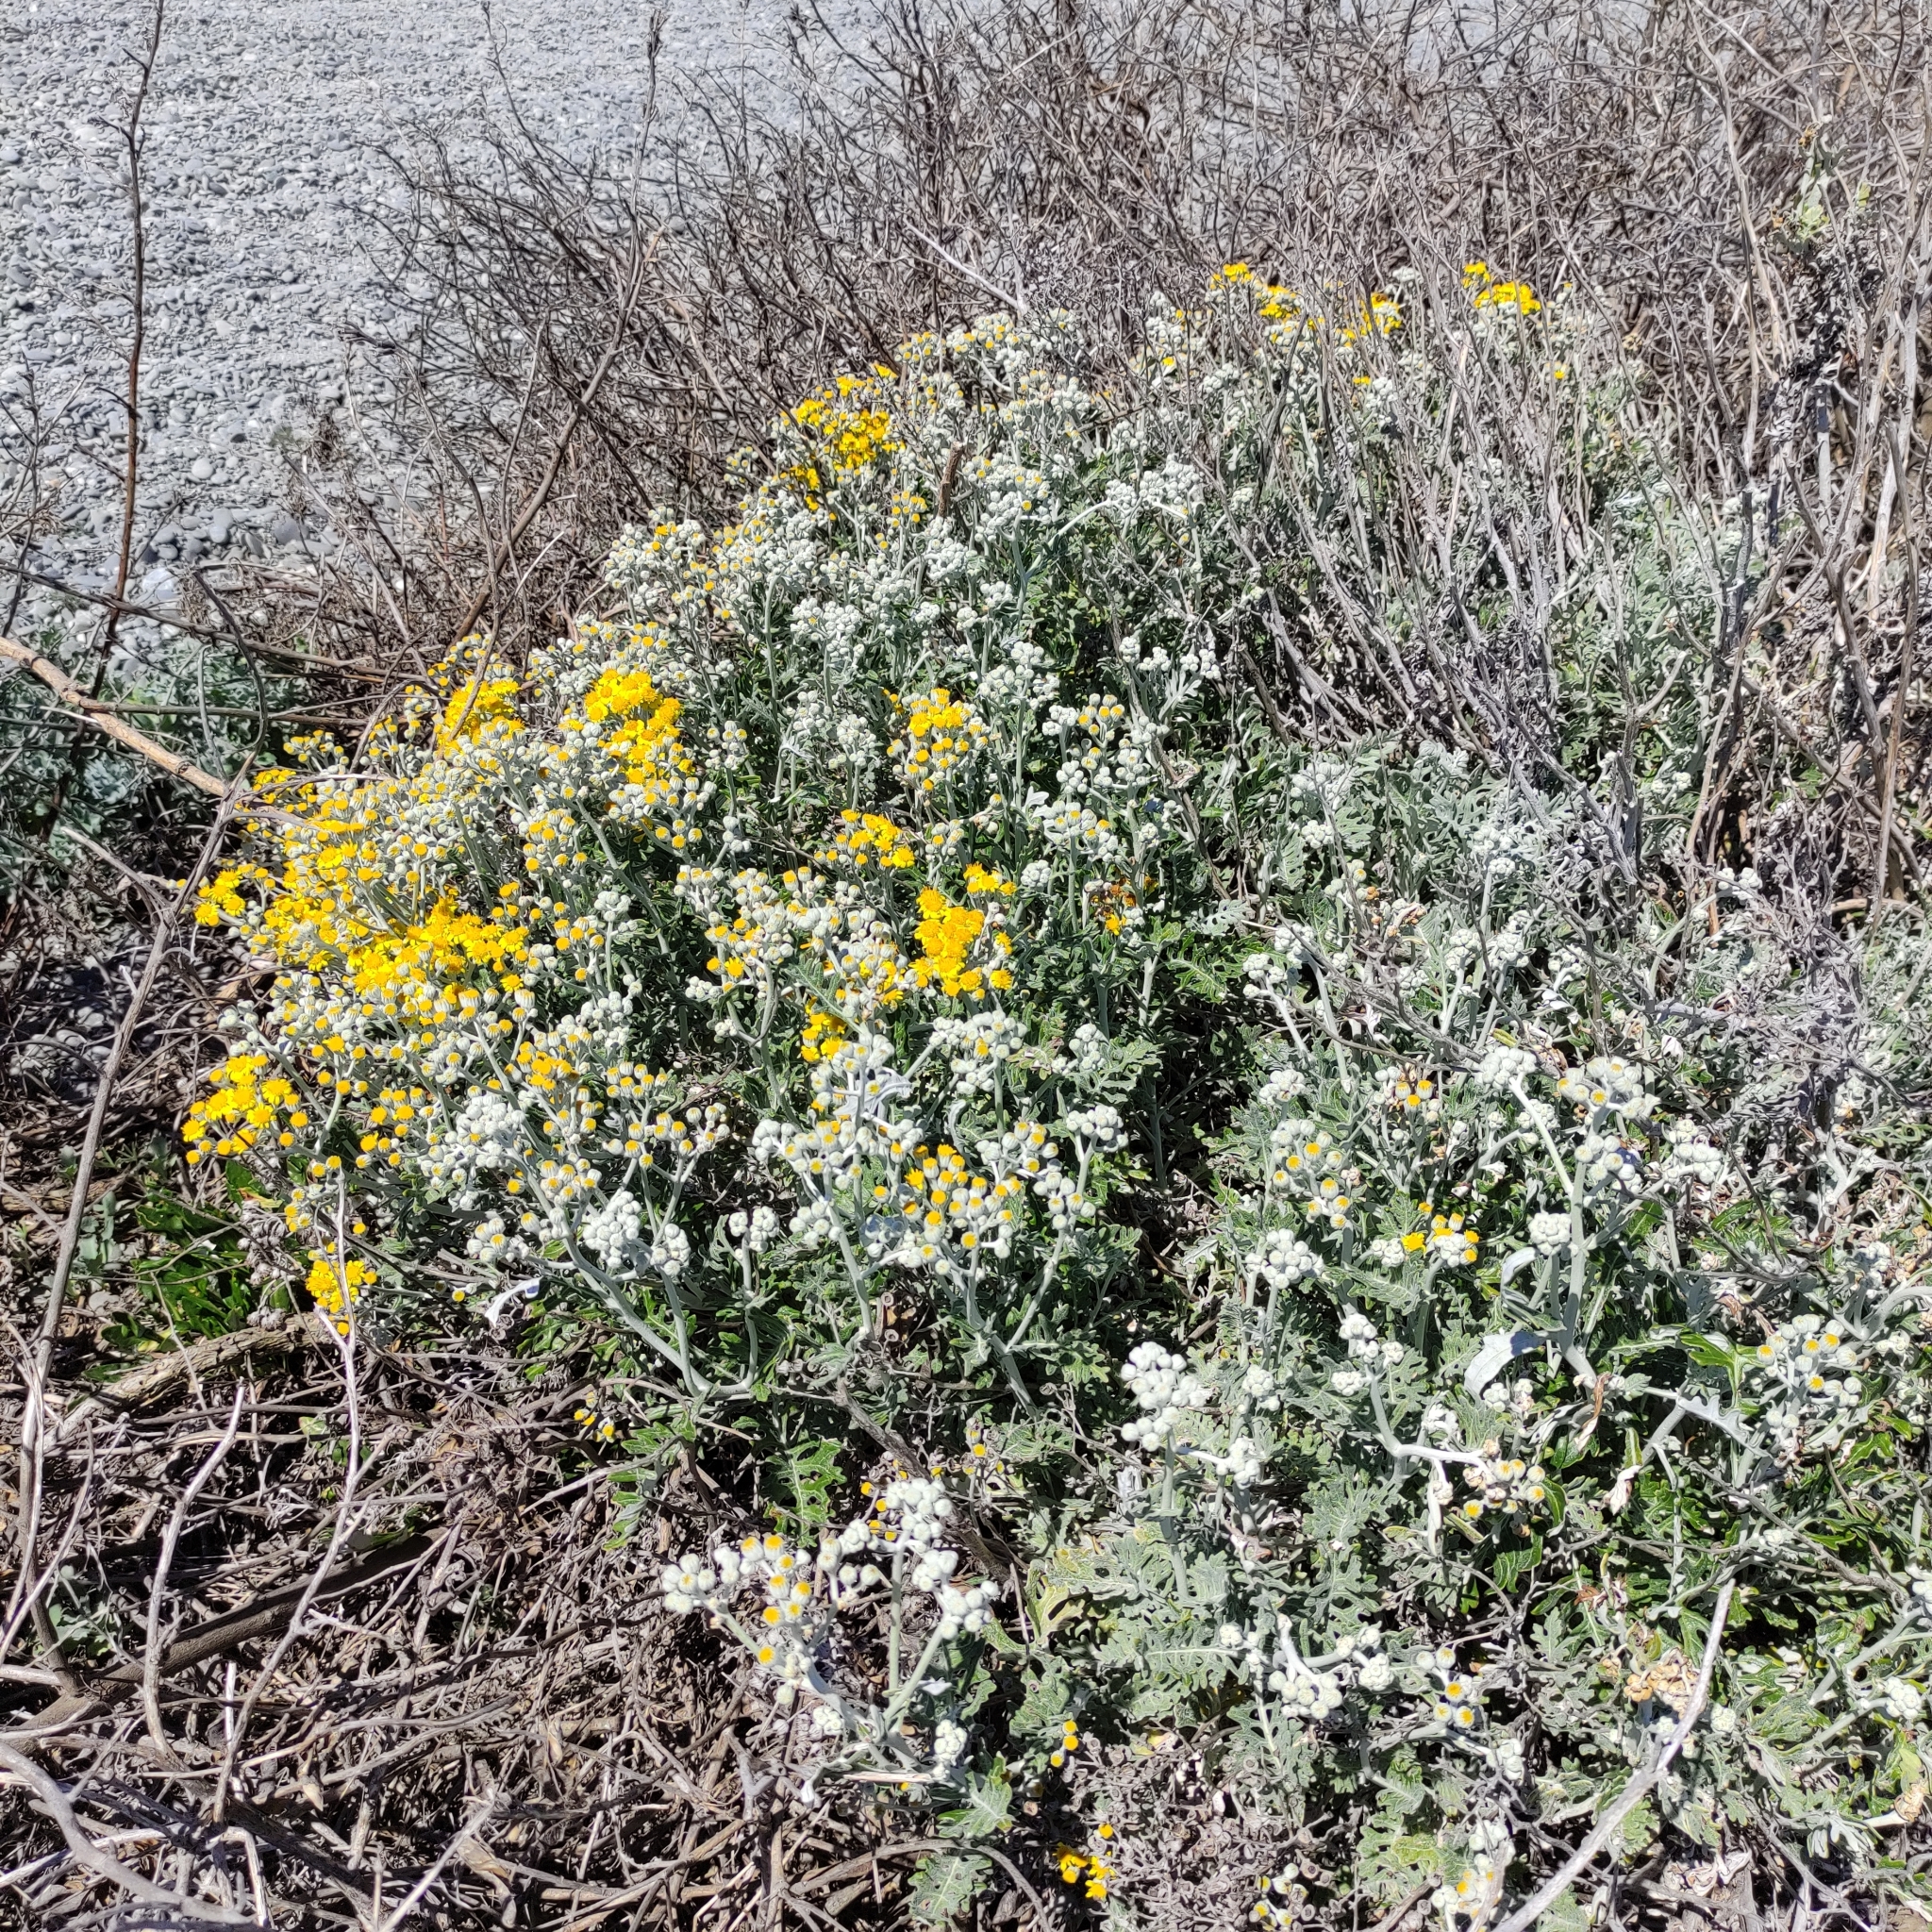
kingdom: Plantae
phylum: Tracheophyta
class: Magnoliopsida
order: Asterales
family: Asteraceae
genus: Jacobaea
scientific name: Jacobaea maritima
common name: Silver ragwort
